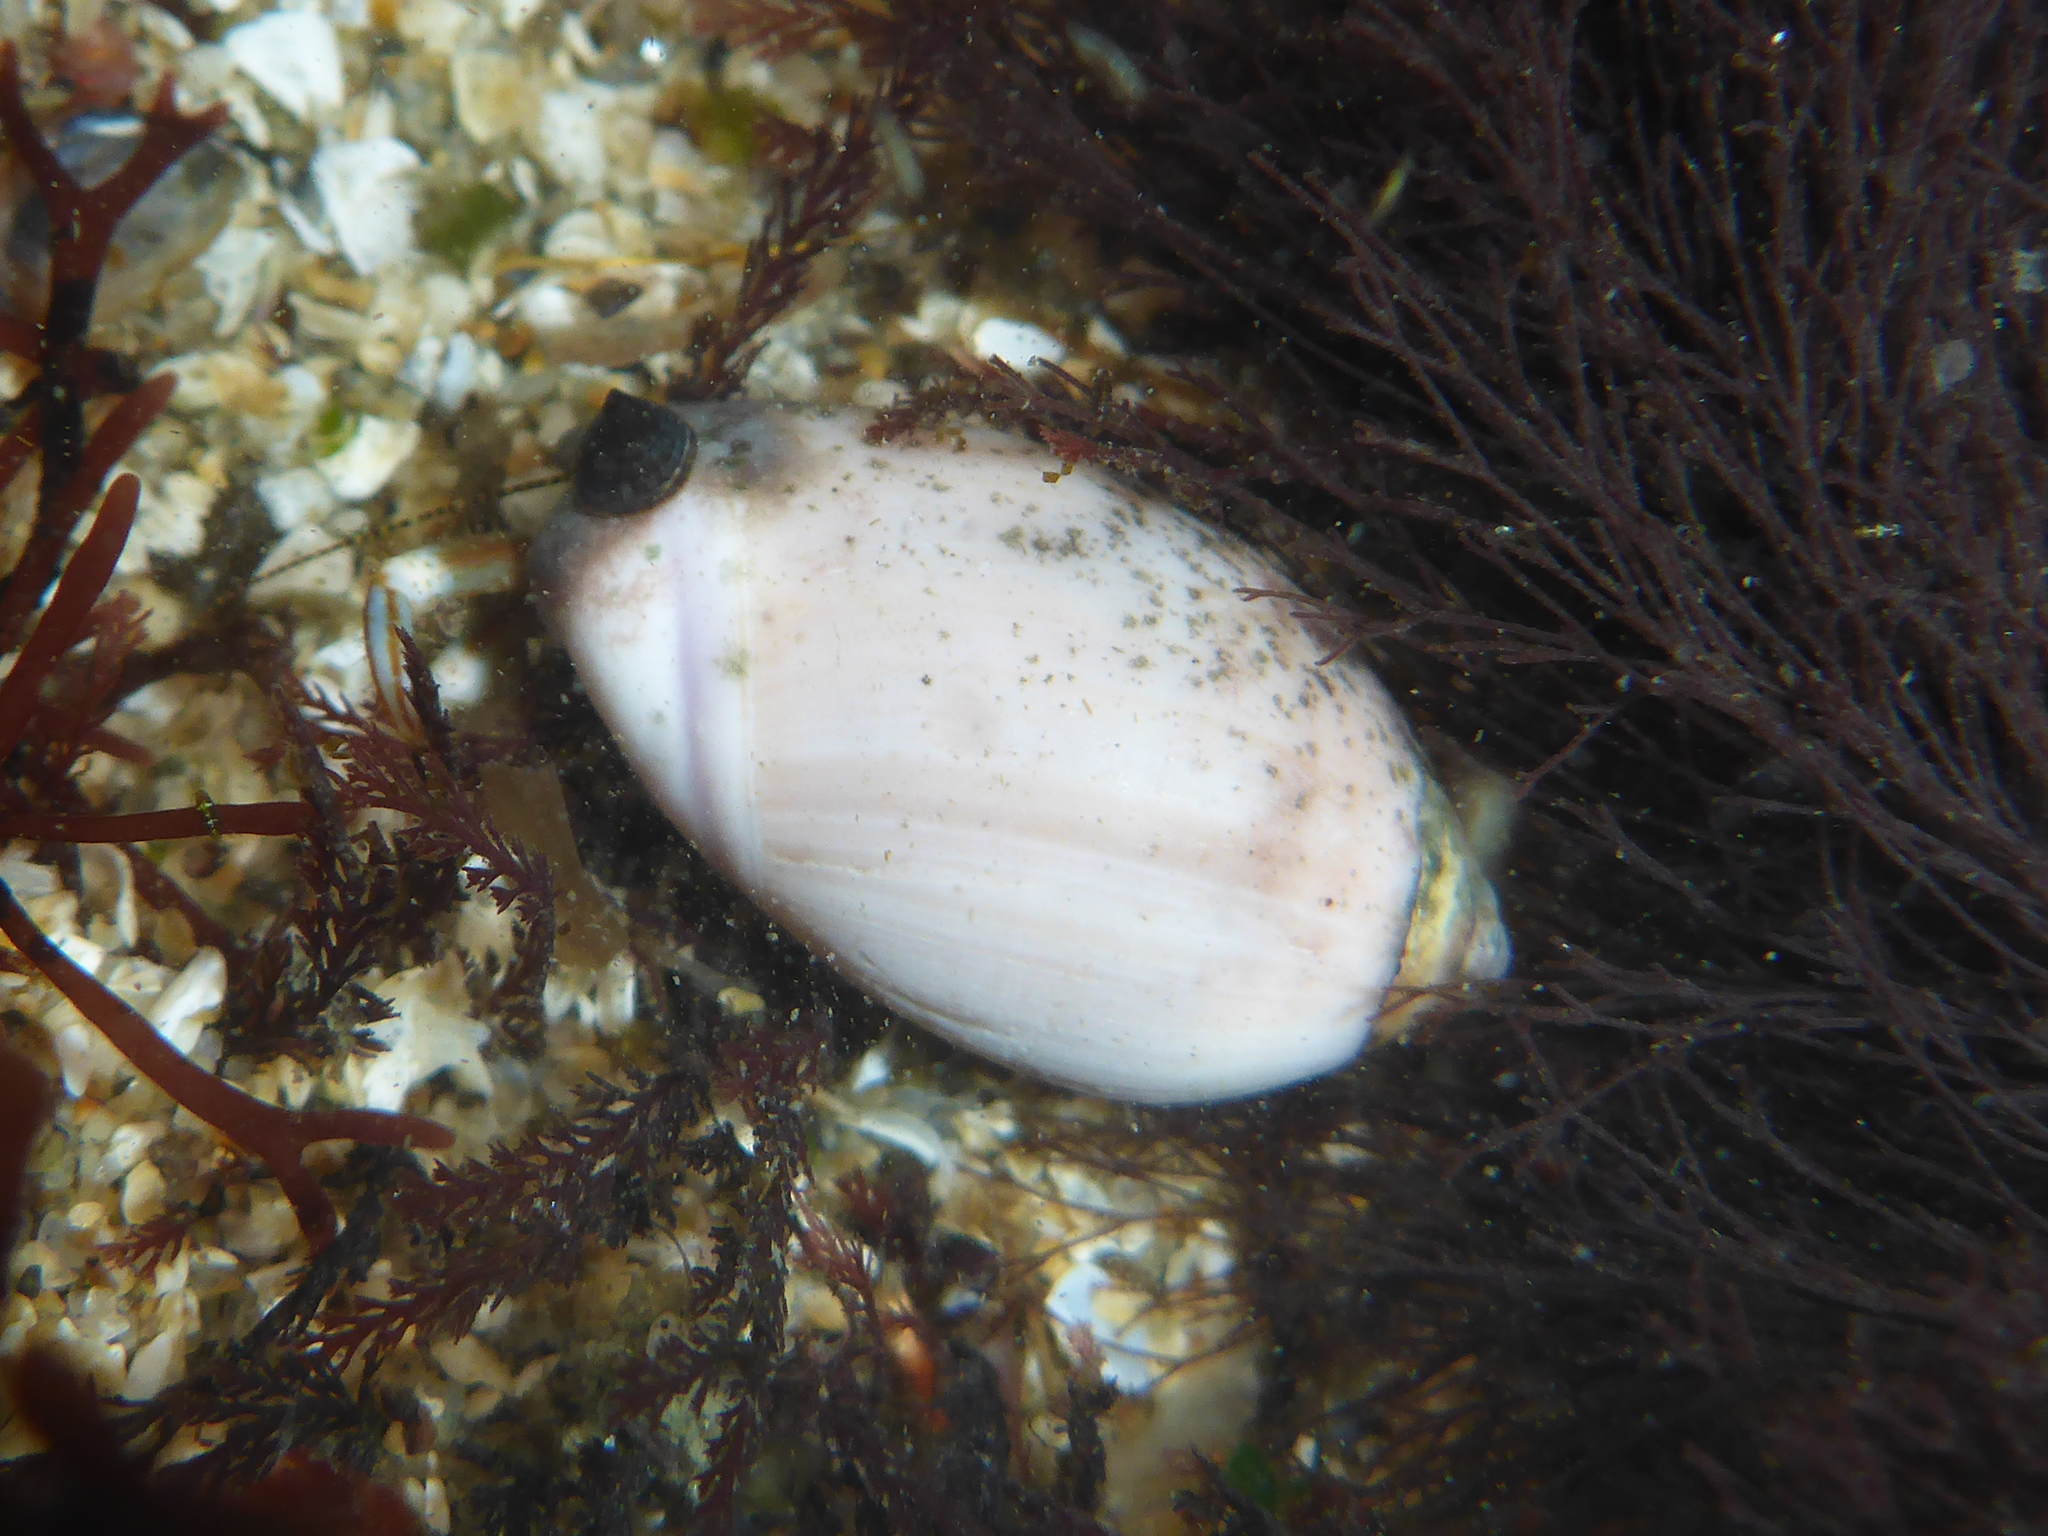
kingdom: Animalia
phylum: Mollusca
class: Gastropoda
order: Neogastropoda
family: Olividae
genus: Callianax
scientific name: Callianax biplicata
